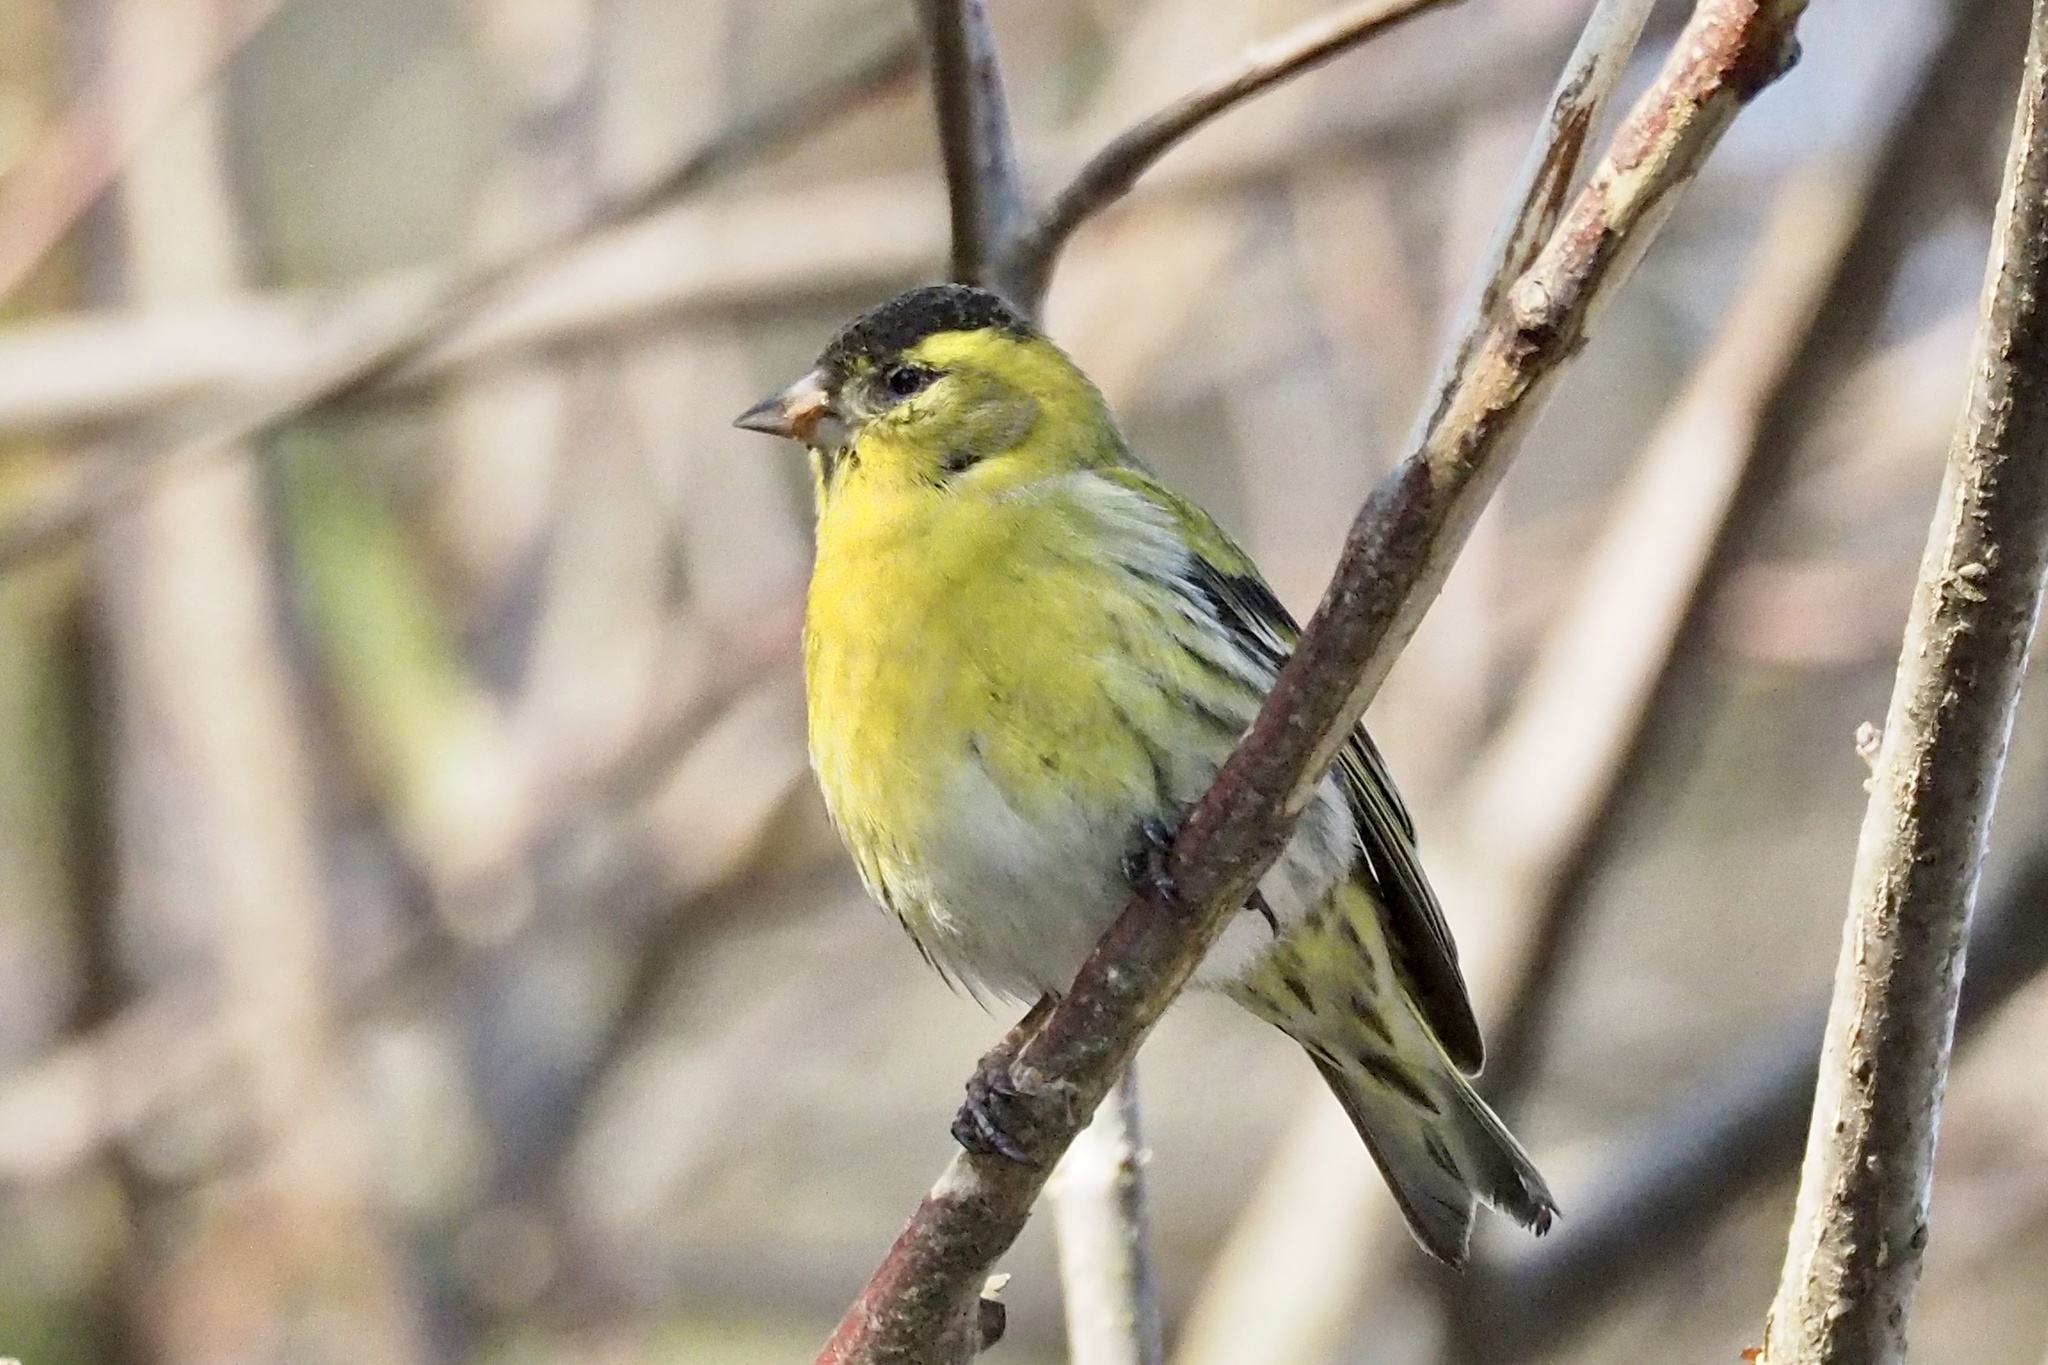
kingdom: Animalia
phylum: Chordata
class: Aves
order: Passeriformes
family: Fringillidae
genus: Spinus
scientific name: Spinus spinus
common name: Eurasian siskin
